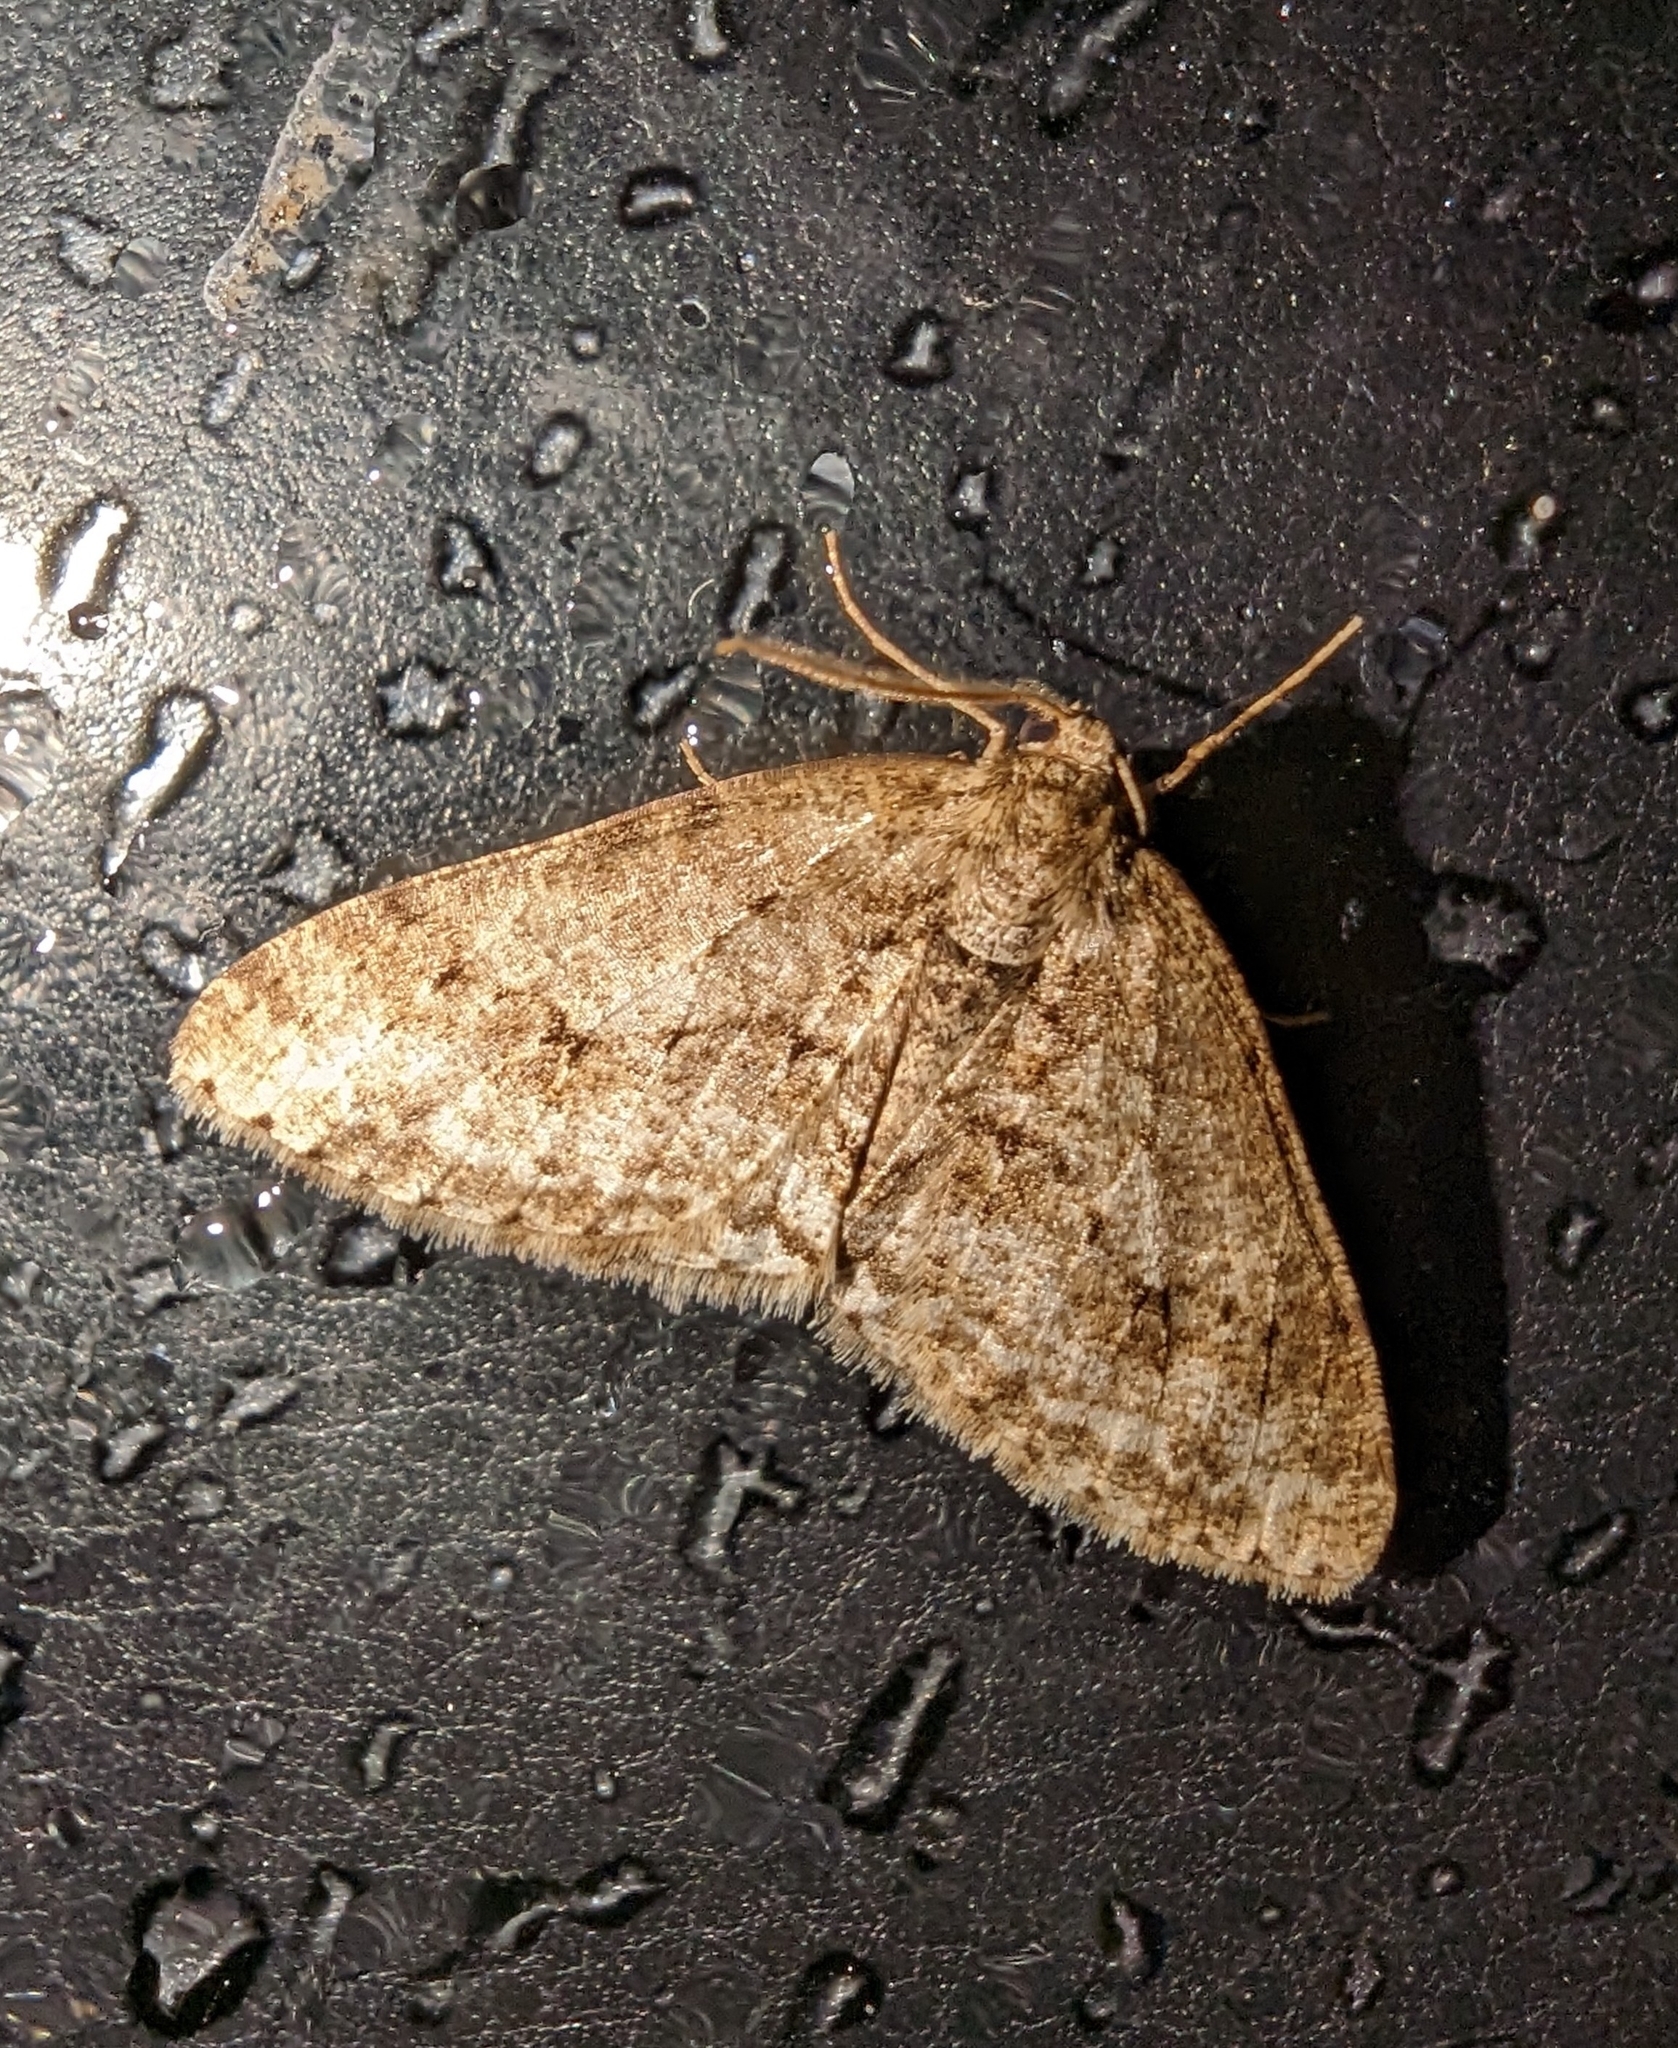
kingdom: Animalia
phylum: Arthropoda
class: Insecta
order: Lepidoptera
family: Geometridae
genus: Ectropis
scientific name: Ectropis crepuscularia
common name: Engrailed
